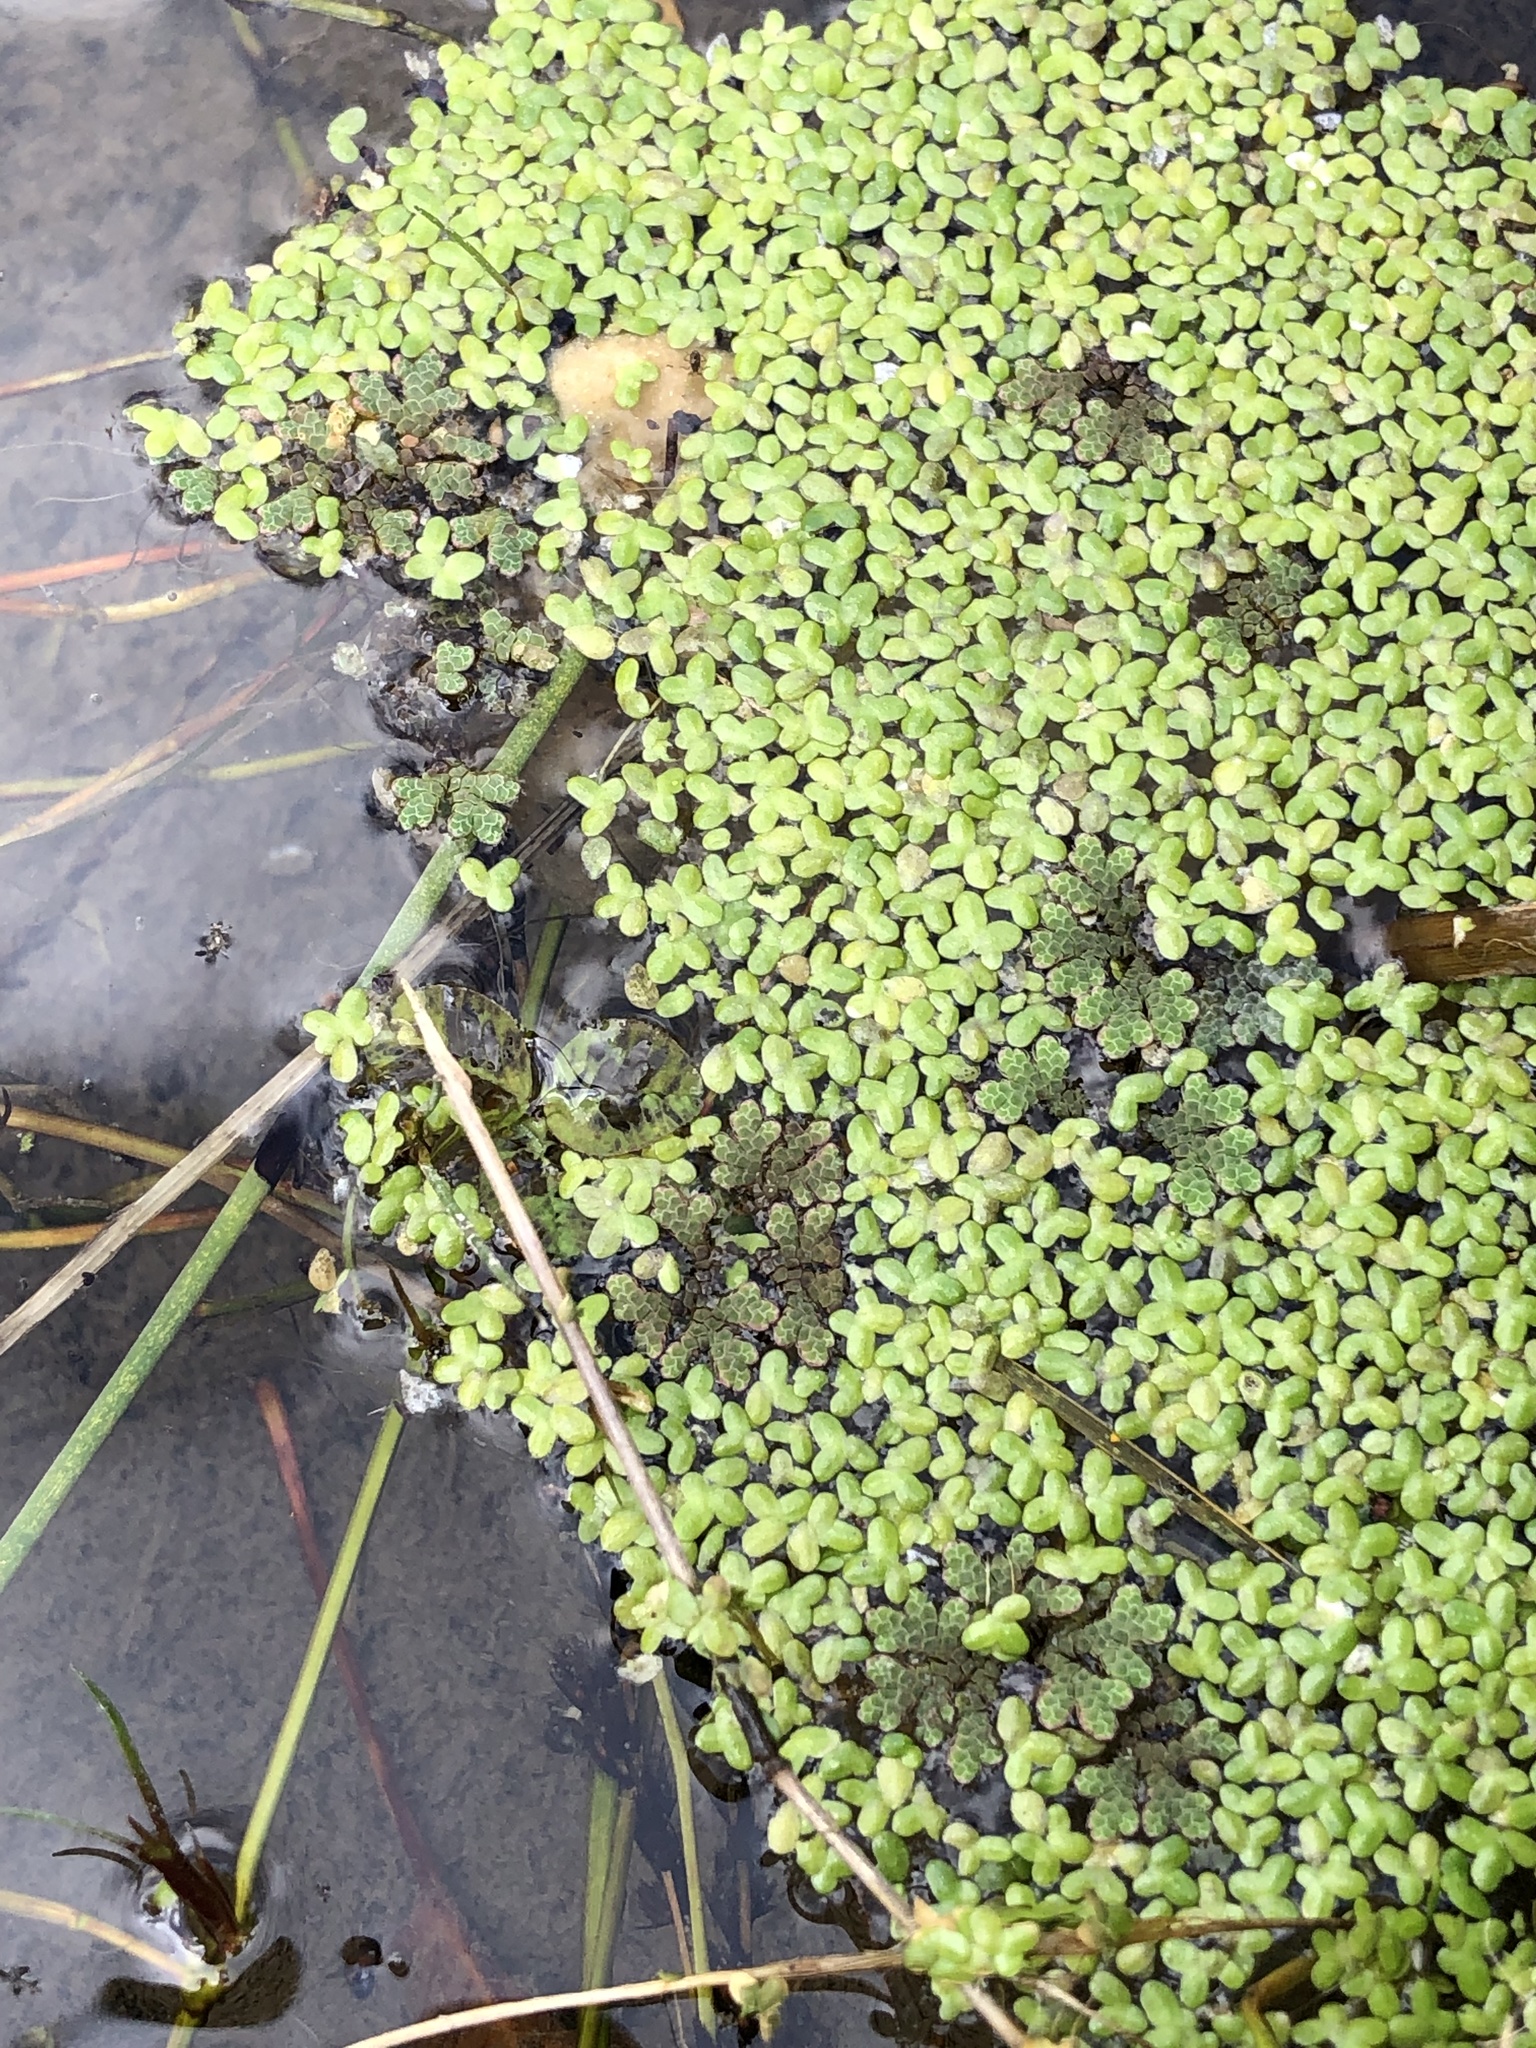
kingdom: Plantae
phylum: Tracheophyta
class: Polypodiopsida
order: Salviniales
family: Salviniaceae
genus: Azolla
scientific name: Azolla rubra
